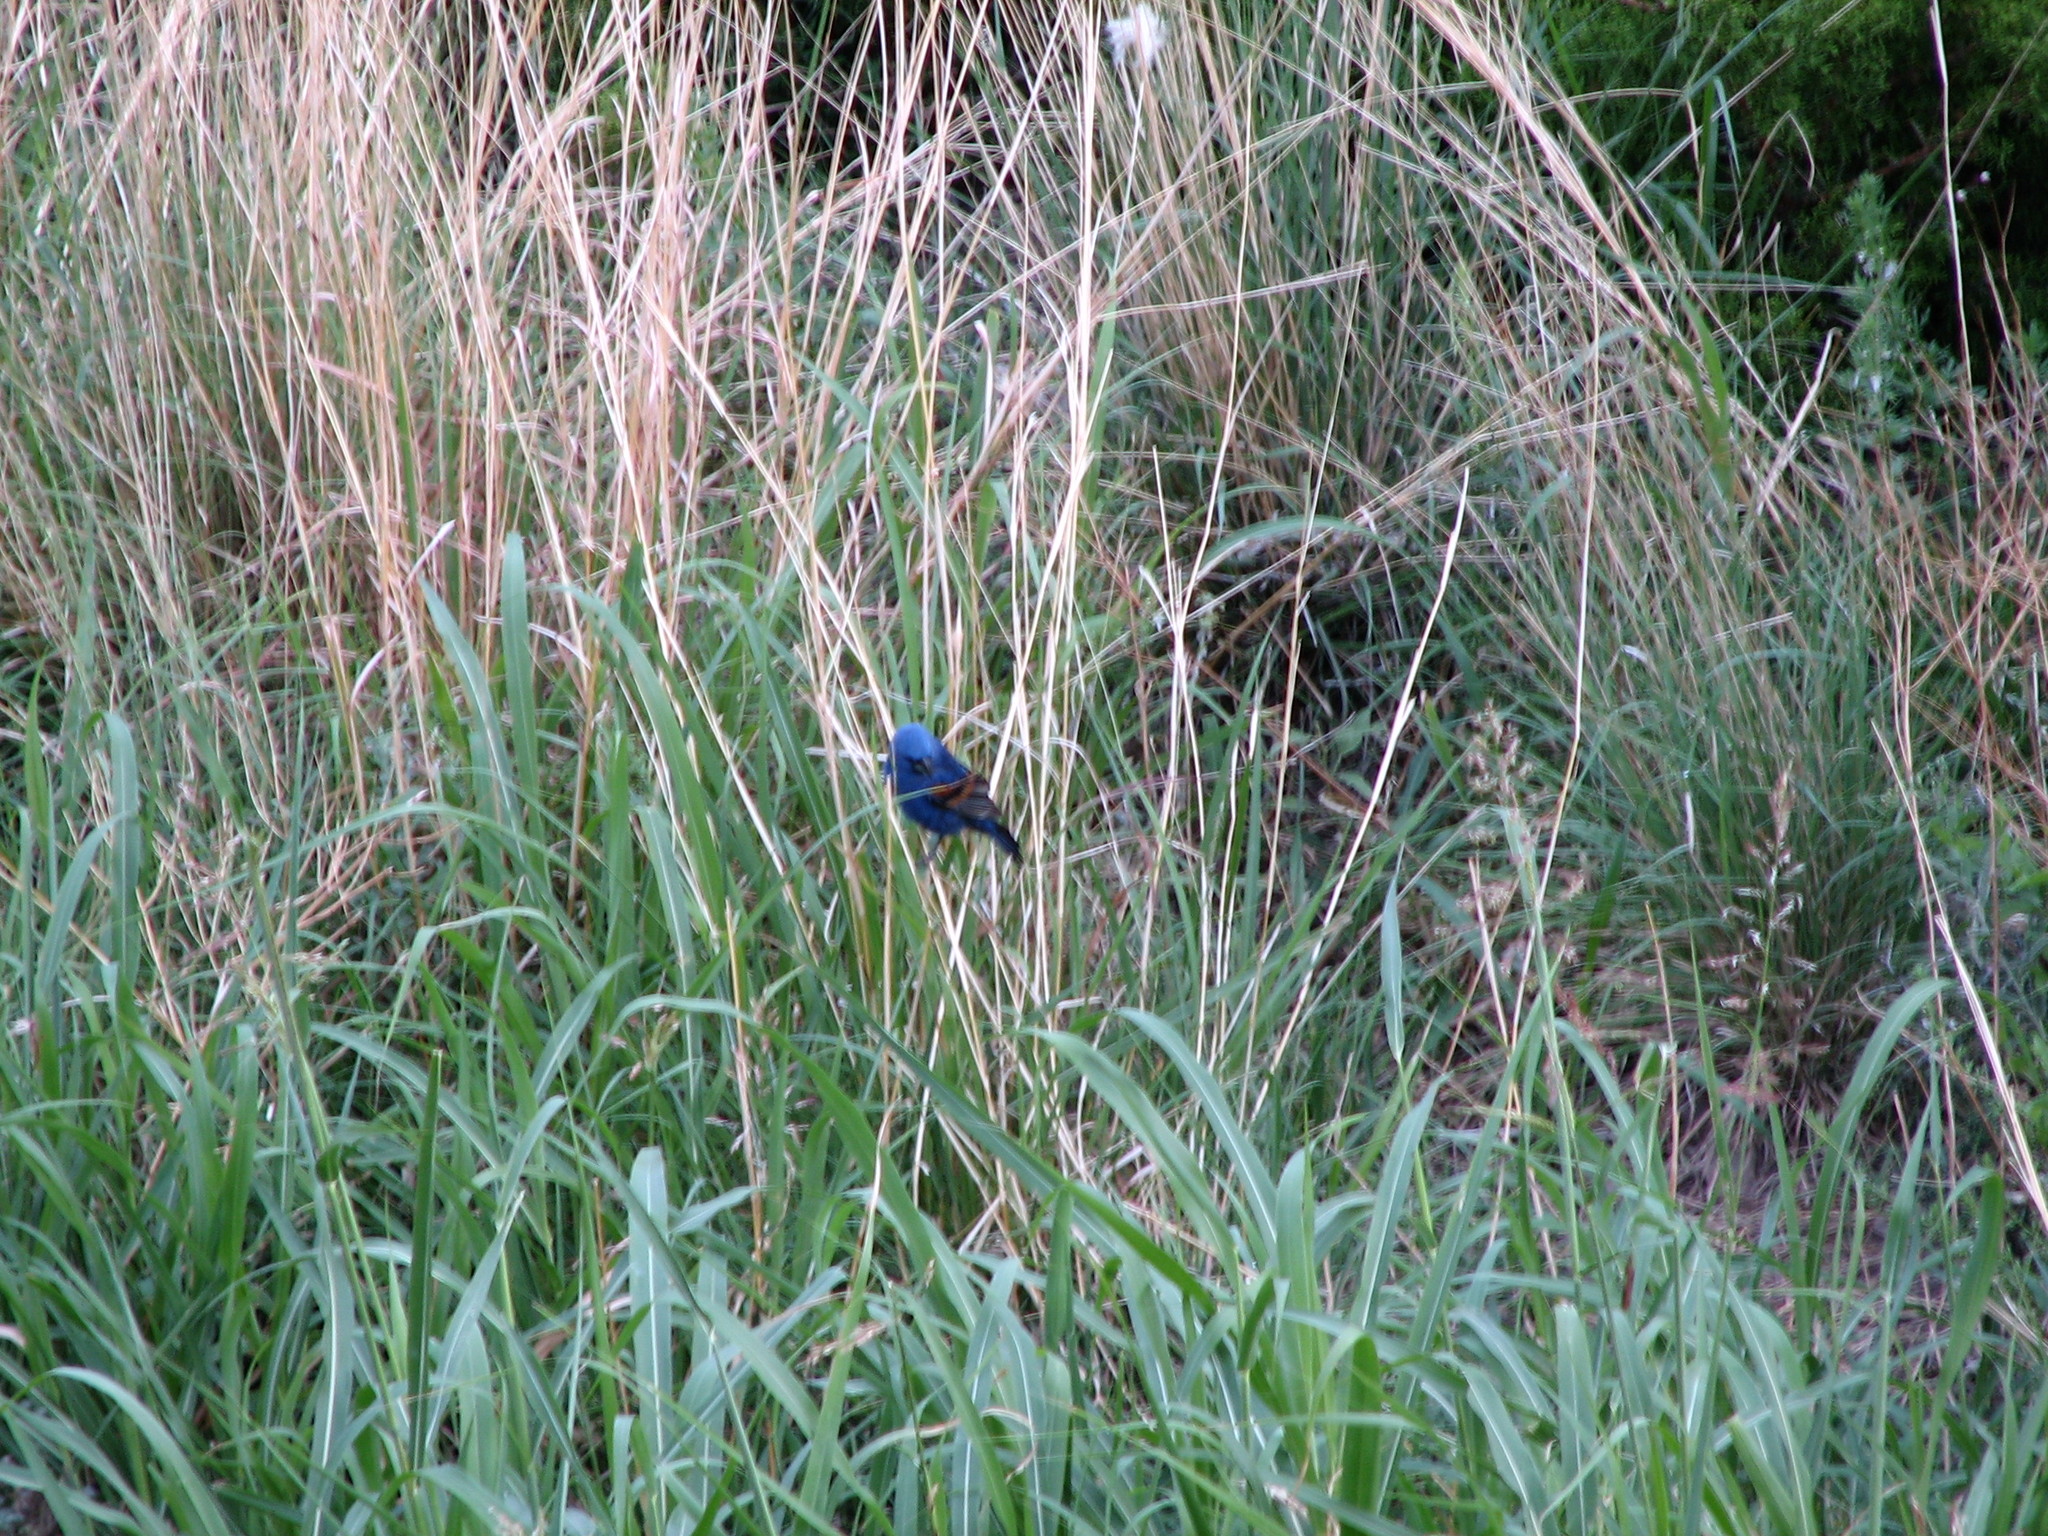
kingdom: Animalia
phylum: Chordata
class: Aves
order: Passeriformes
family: Cardinalidae
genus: Passerina
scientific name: Passerina caerulea
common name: Blue grosbeak
